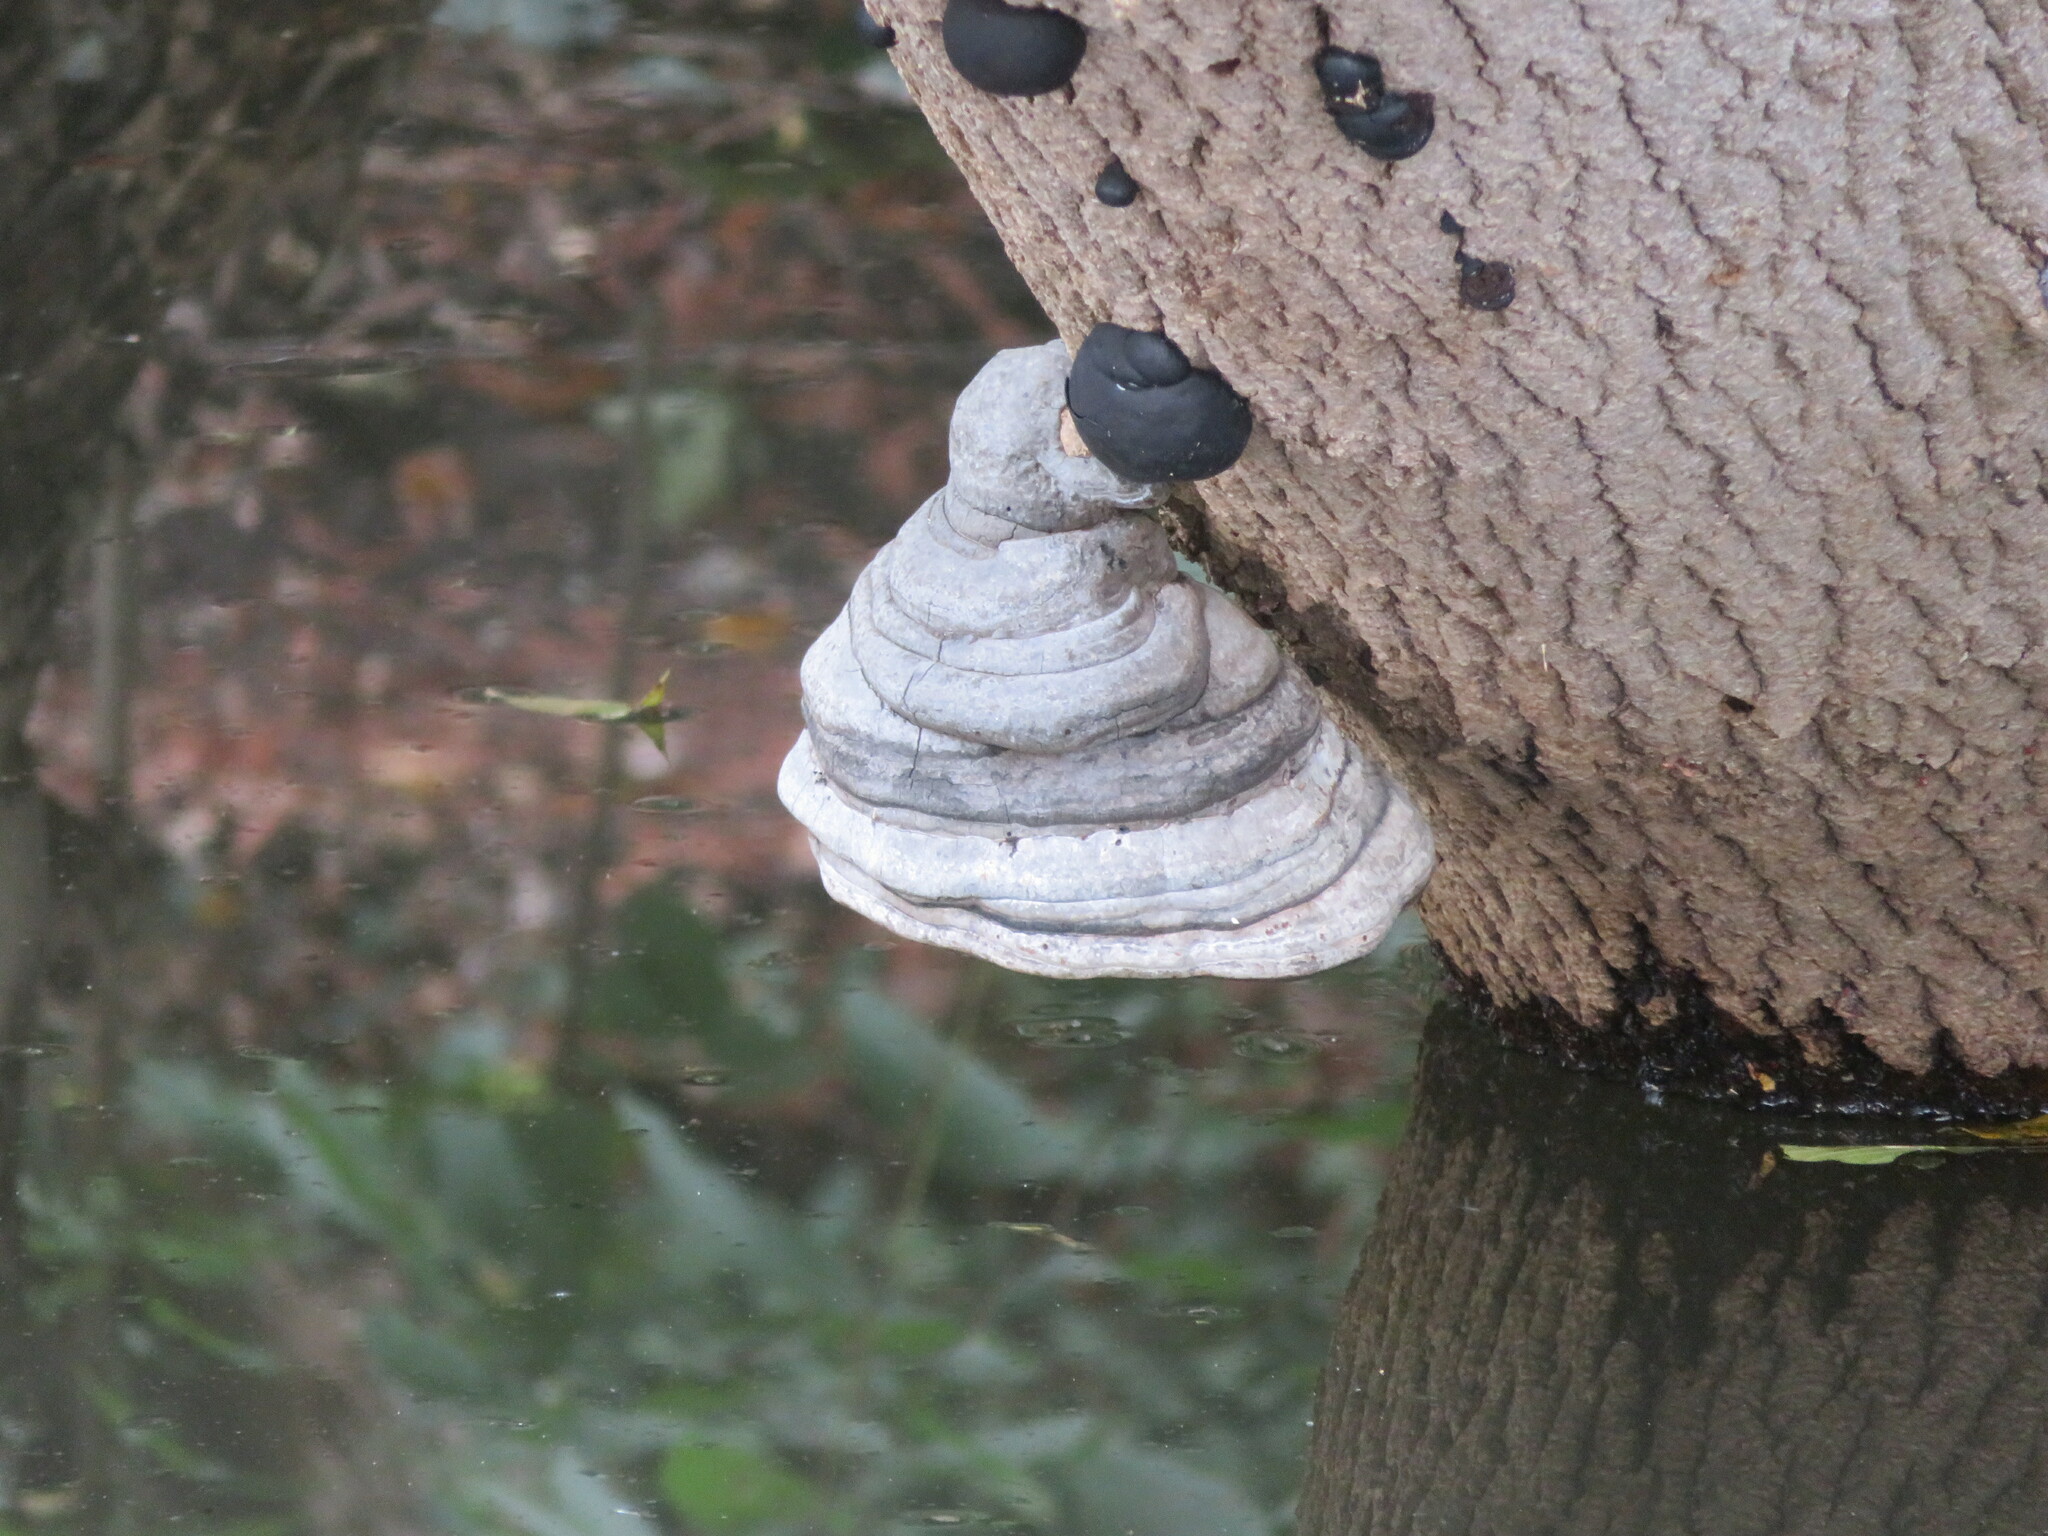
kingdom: Fungi
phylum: Basidiomycota
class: Agaricomycetes
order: Polyporales
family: Polyporaceae
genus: Fomes
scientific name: Fomes fomentarius
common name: Hoof fungus
